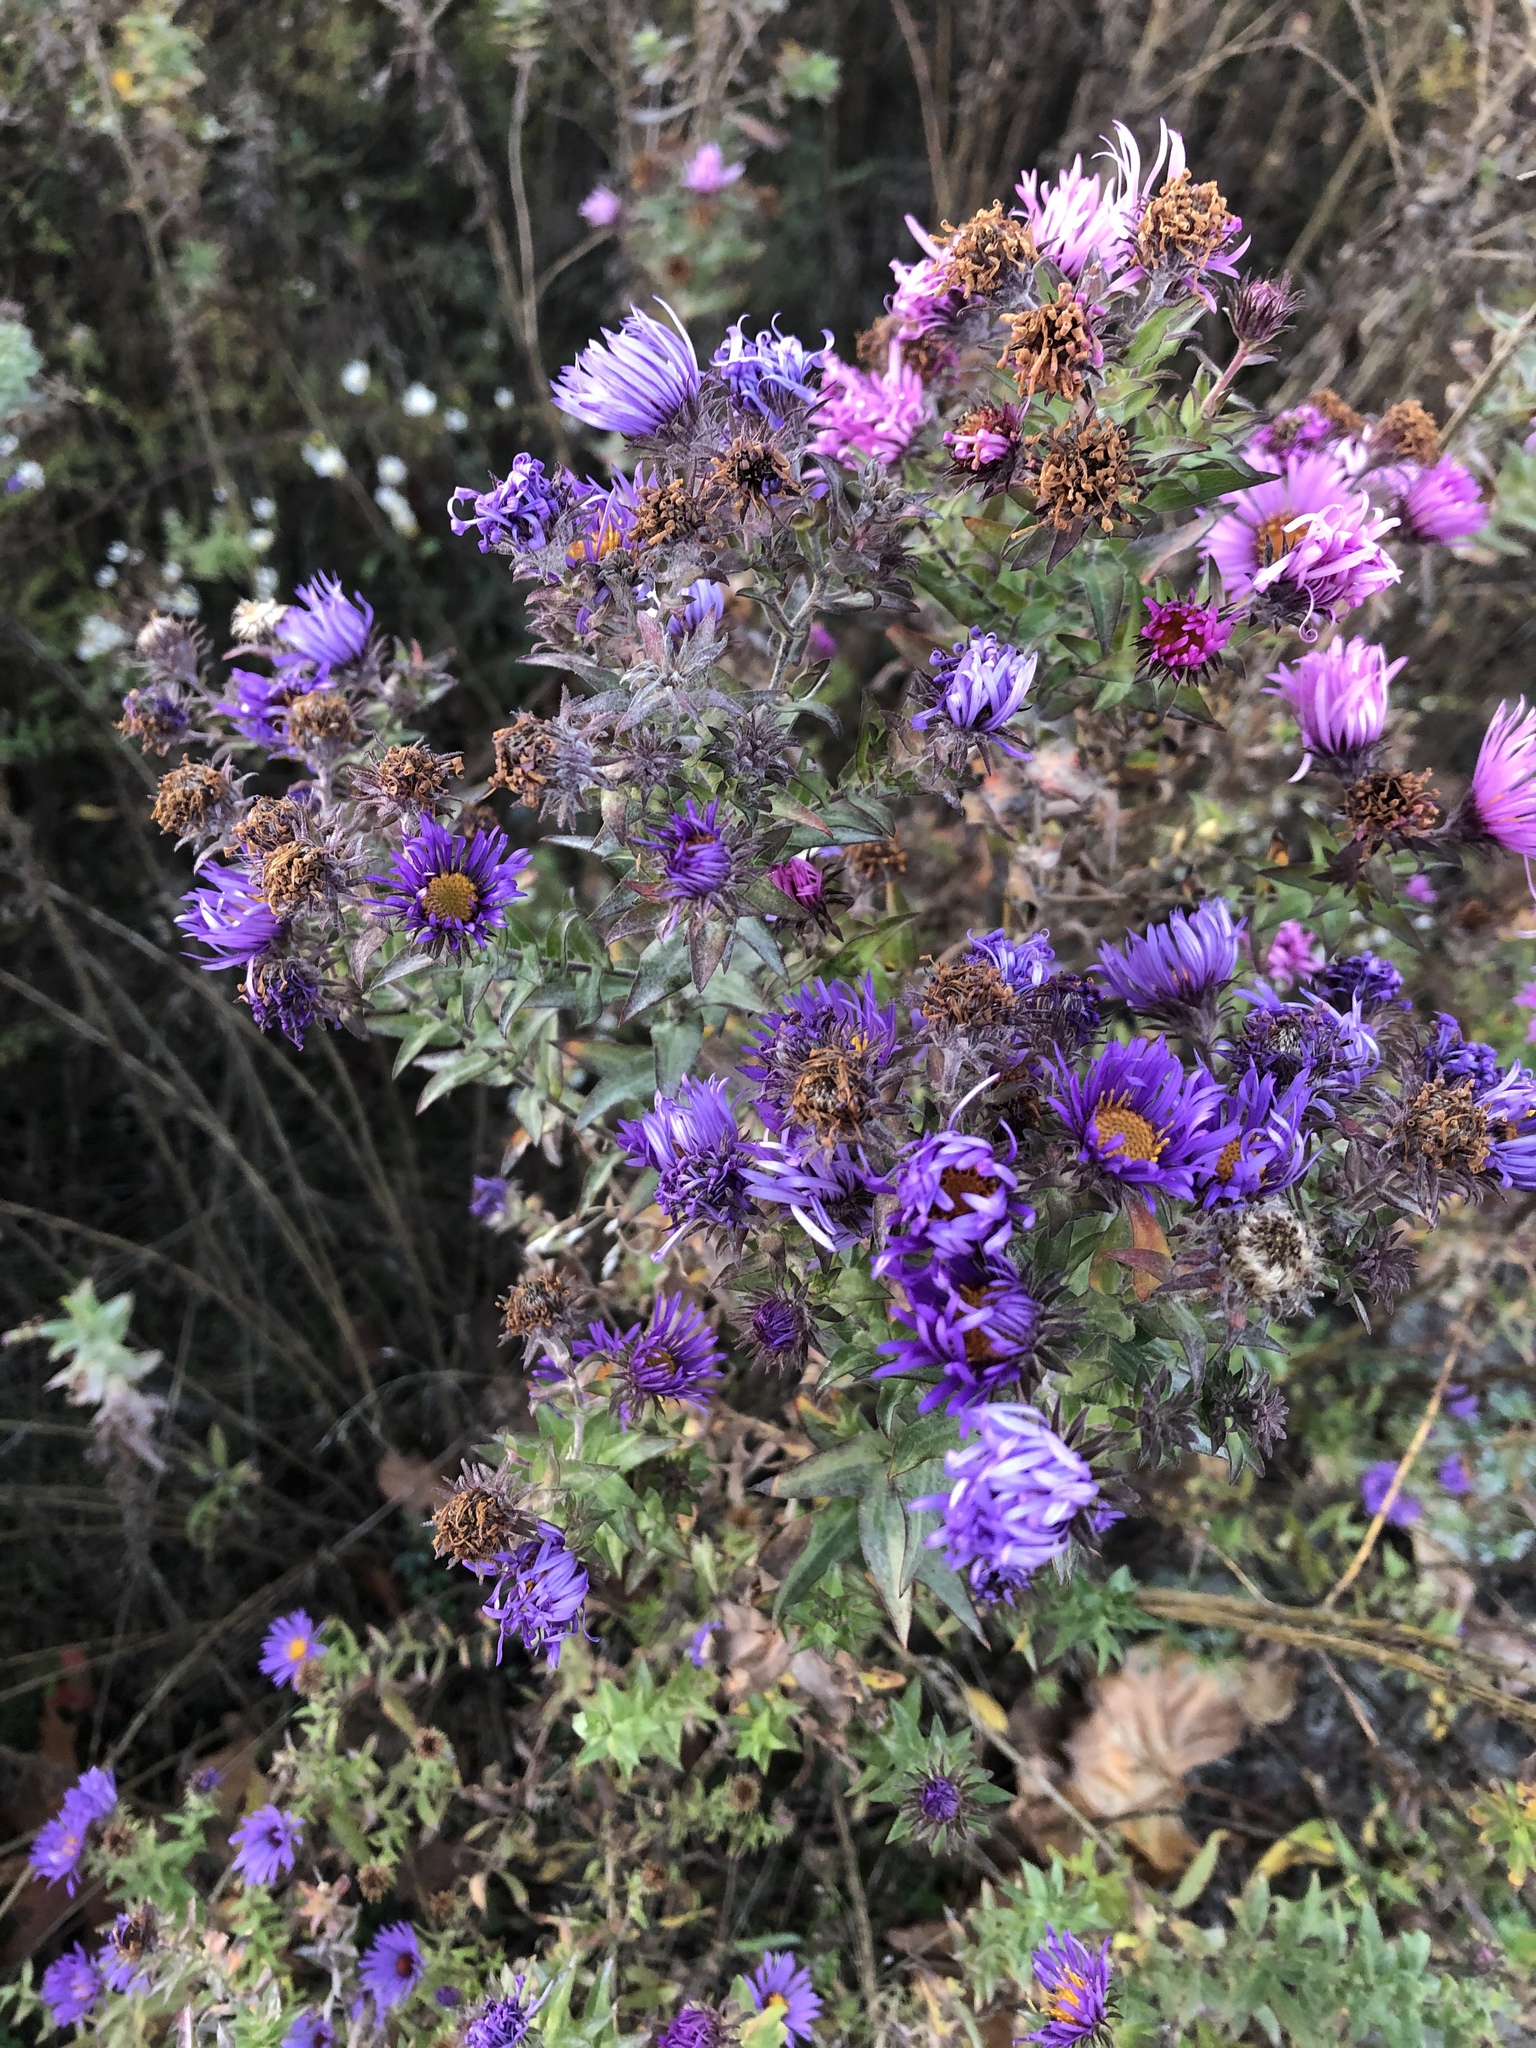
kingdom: Plantae
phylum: Tracheophyta
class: Magnoliopsida
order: Asterales
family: Asteraceae
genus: Symphyotrichum
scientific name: Symphyotrichum novae-angliae
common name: Michaelmas daisy
